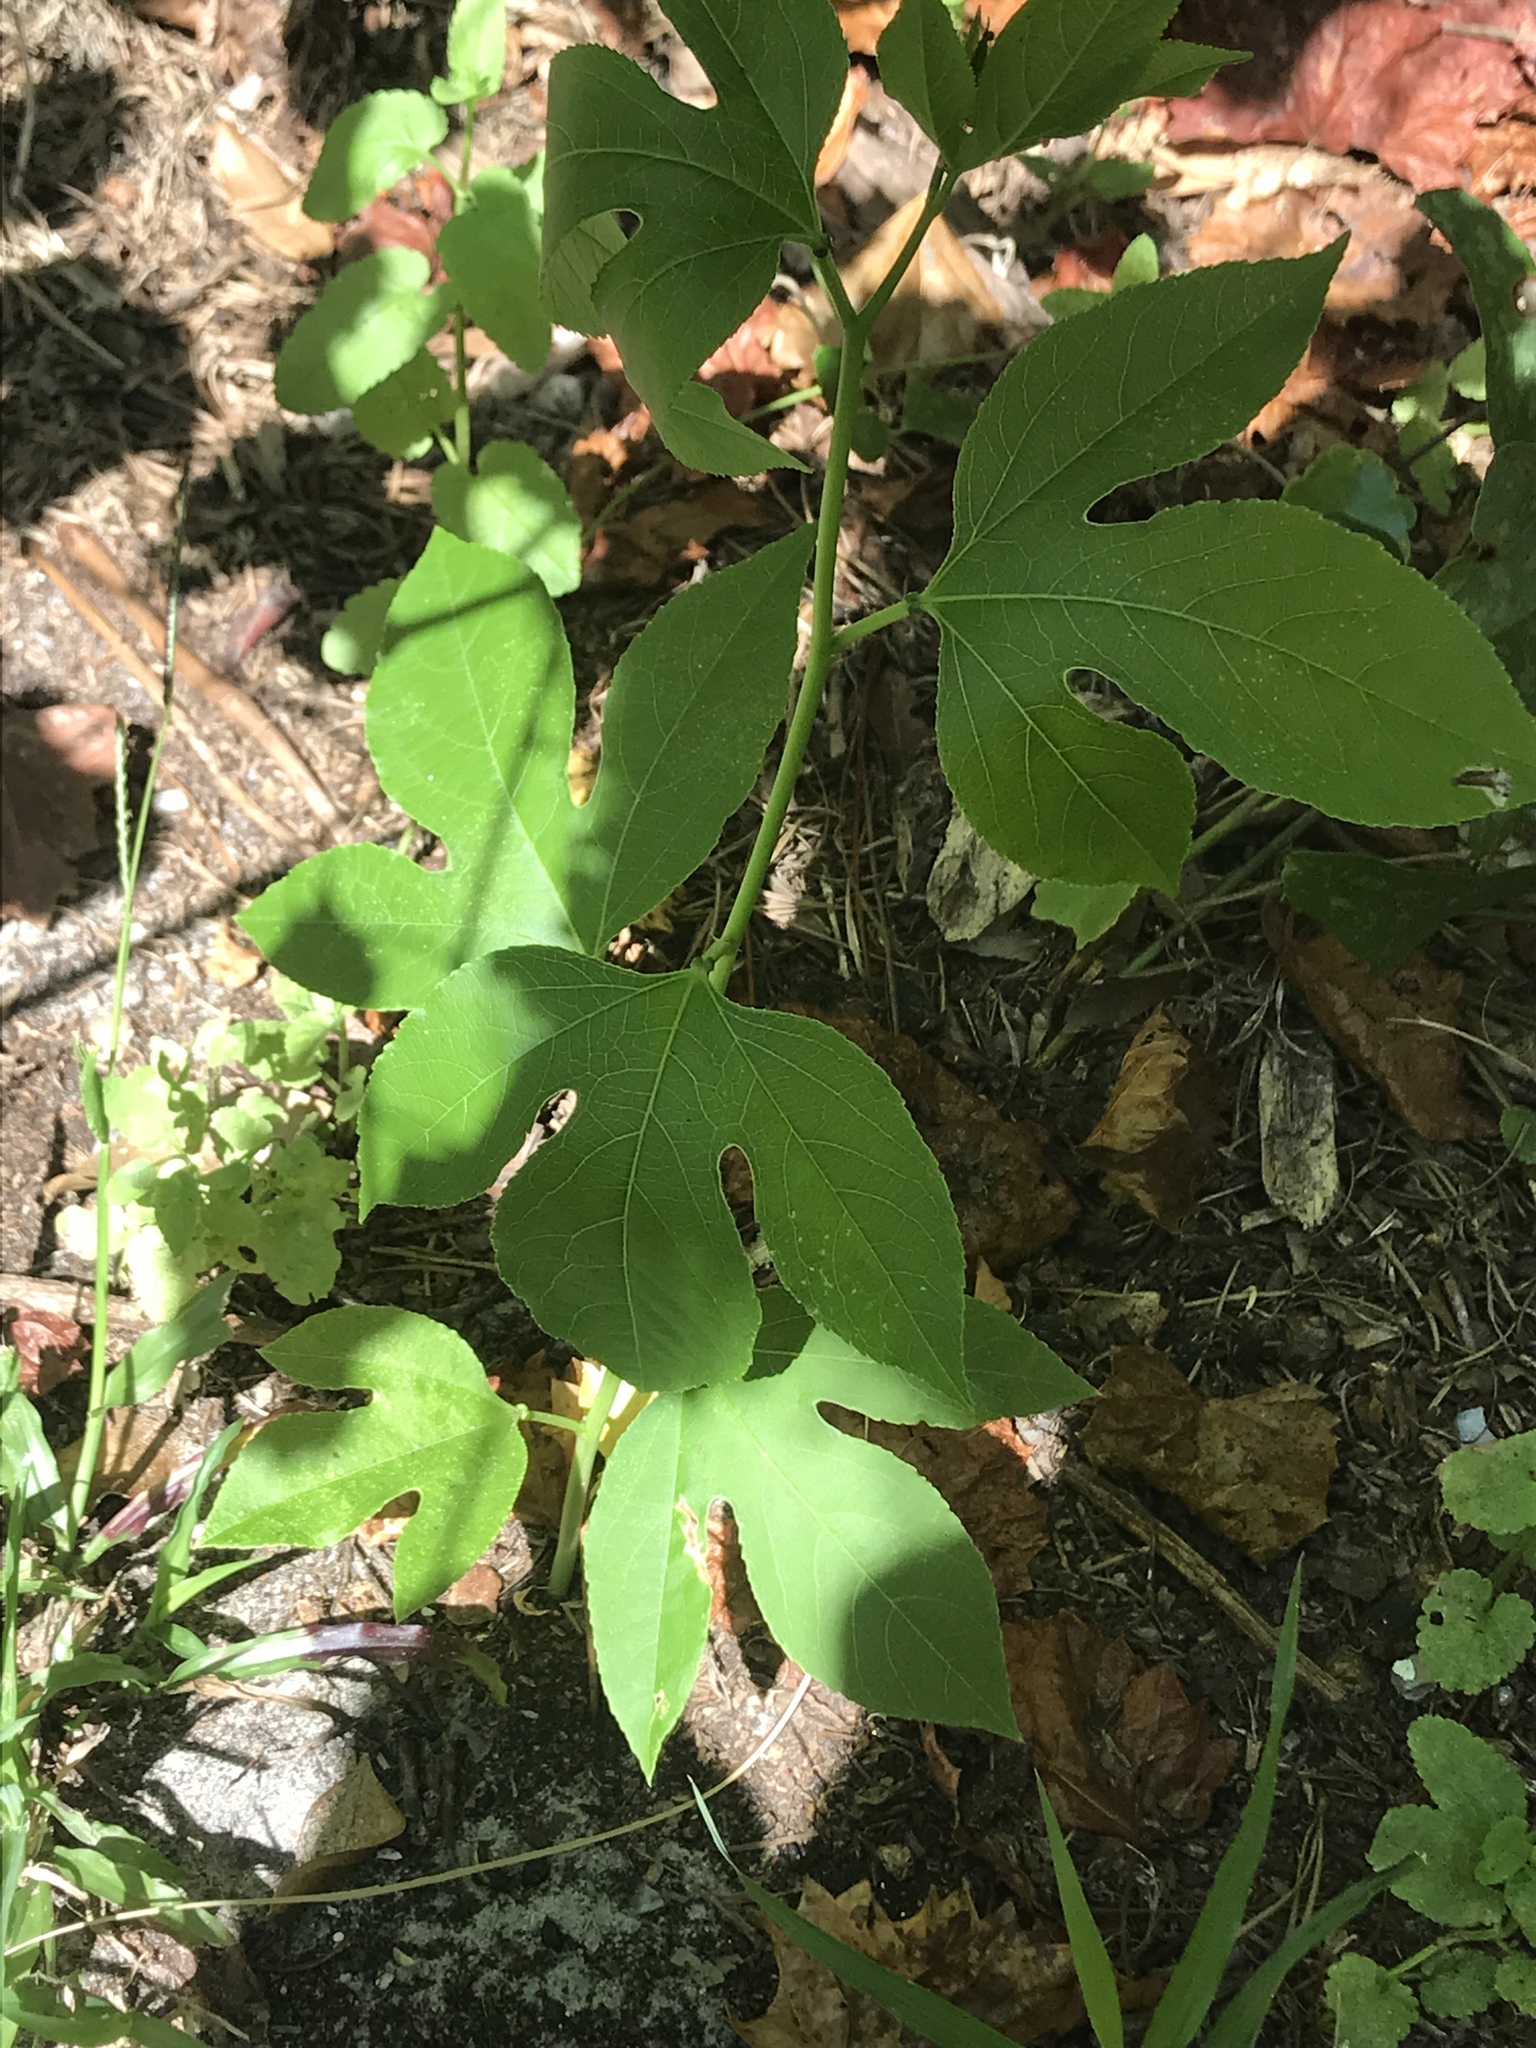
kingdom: Plantae
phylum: Tracheophyta
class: Magnoliopsida
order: Malpighiales
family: Passifloraceae
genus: Passiflora
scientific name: Passiflora incarnata
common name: Apricot-vine
